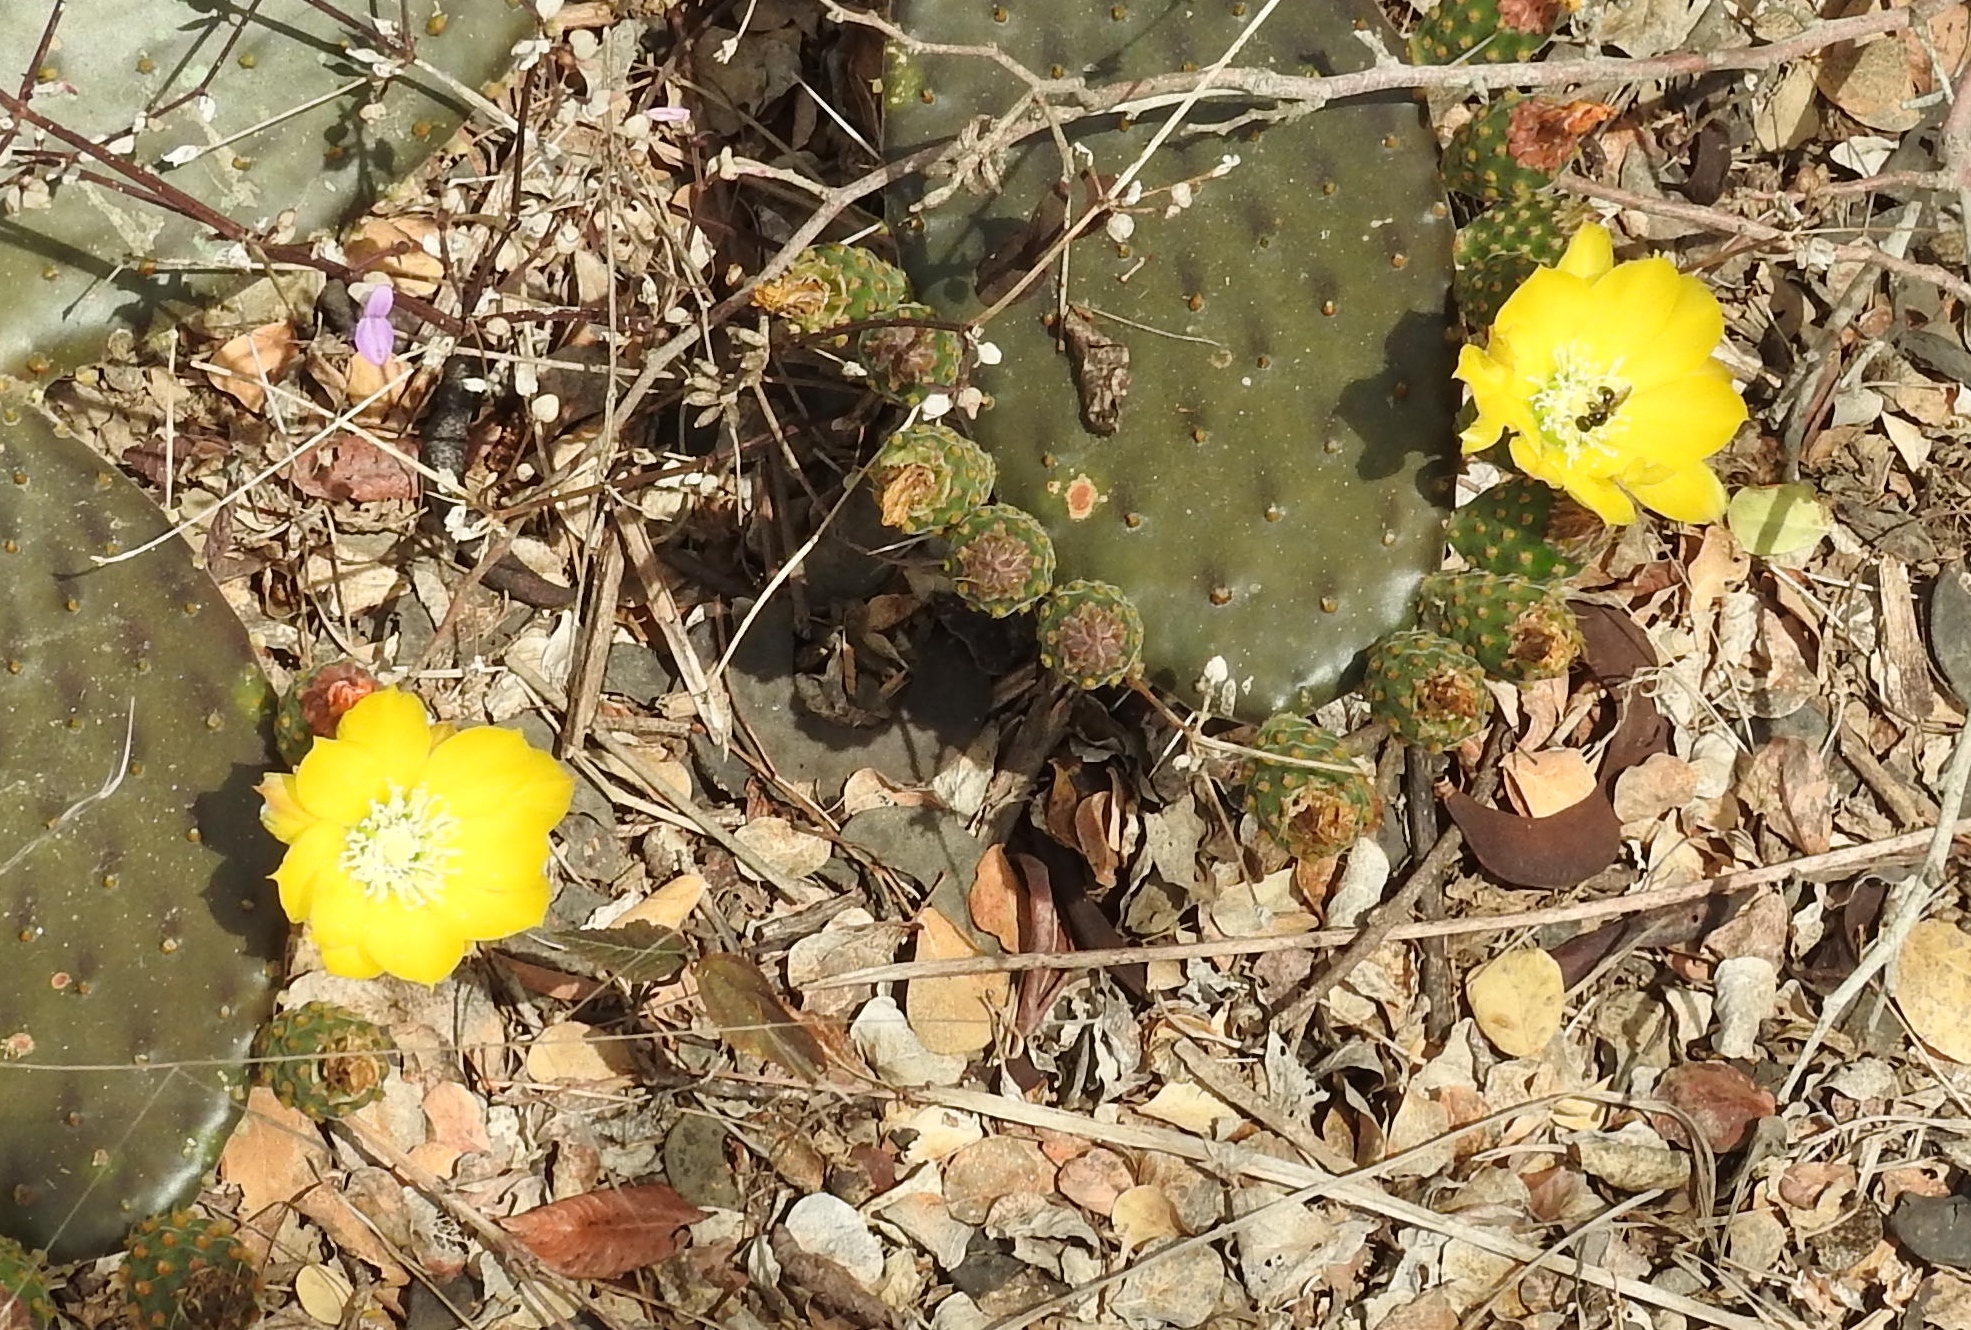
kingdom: Plantae
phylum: Tracheophyta
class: Magnoliopsida
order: Caryophyllales
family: Cactaceae
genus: Opuntia
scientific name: Opuntia decumbens
